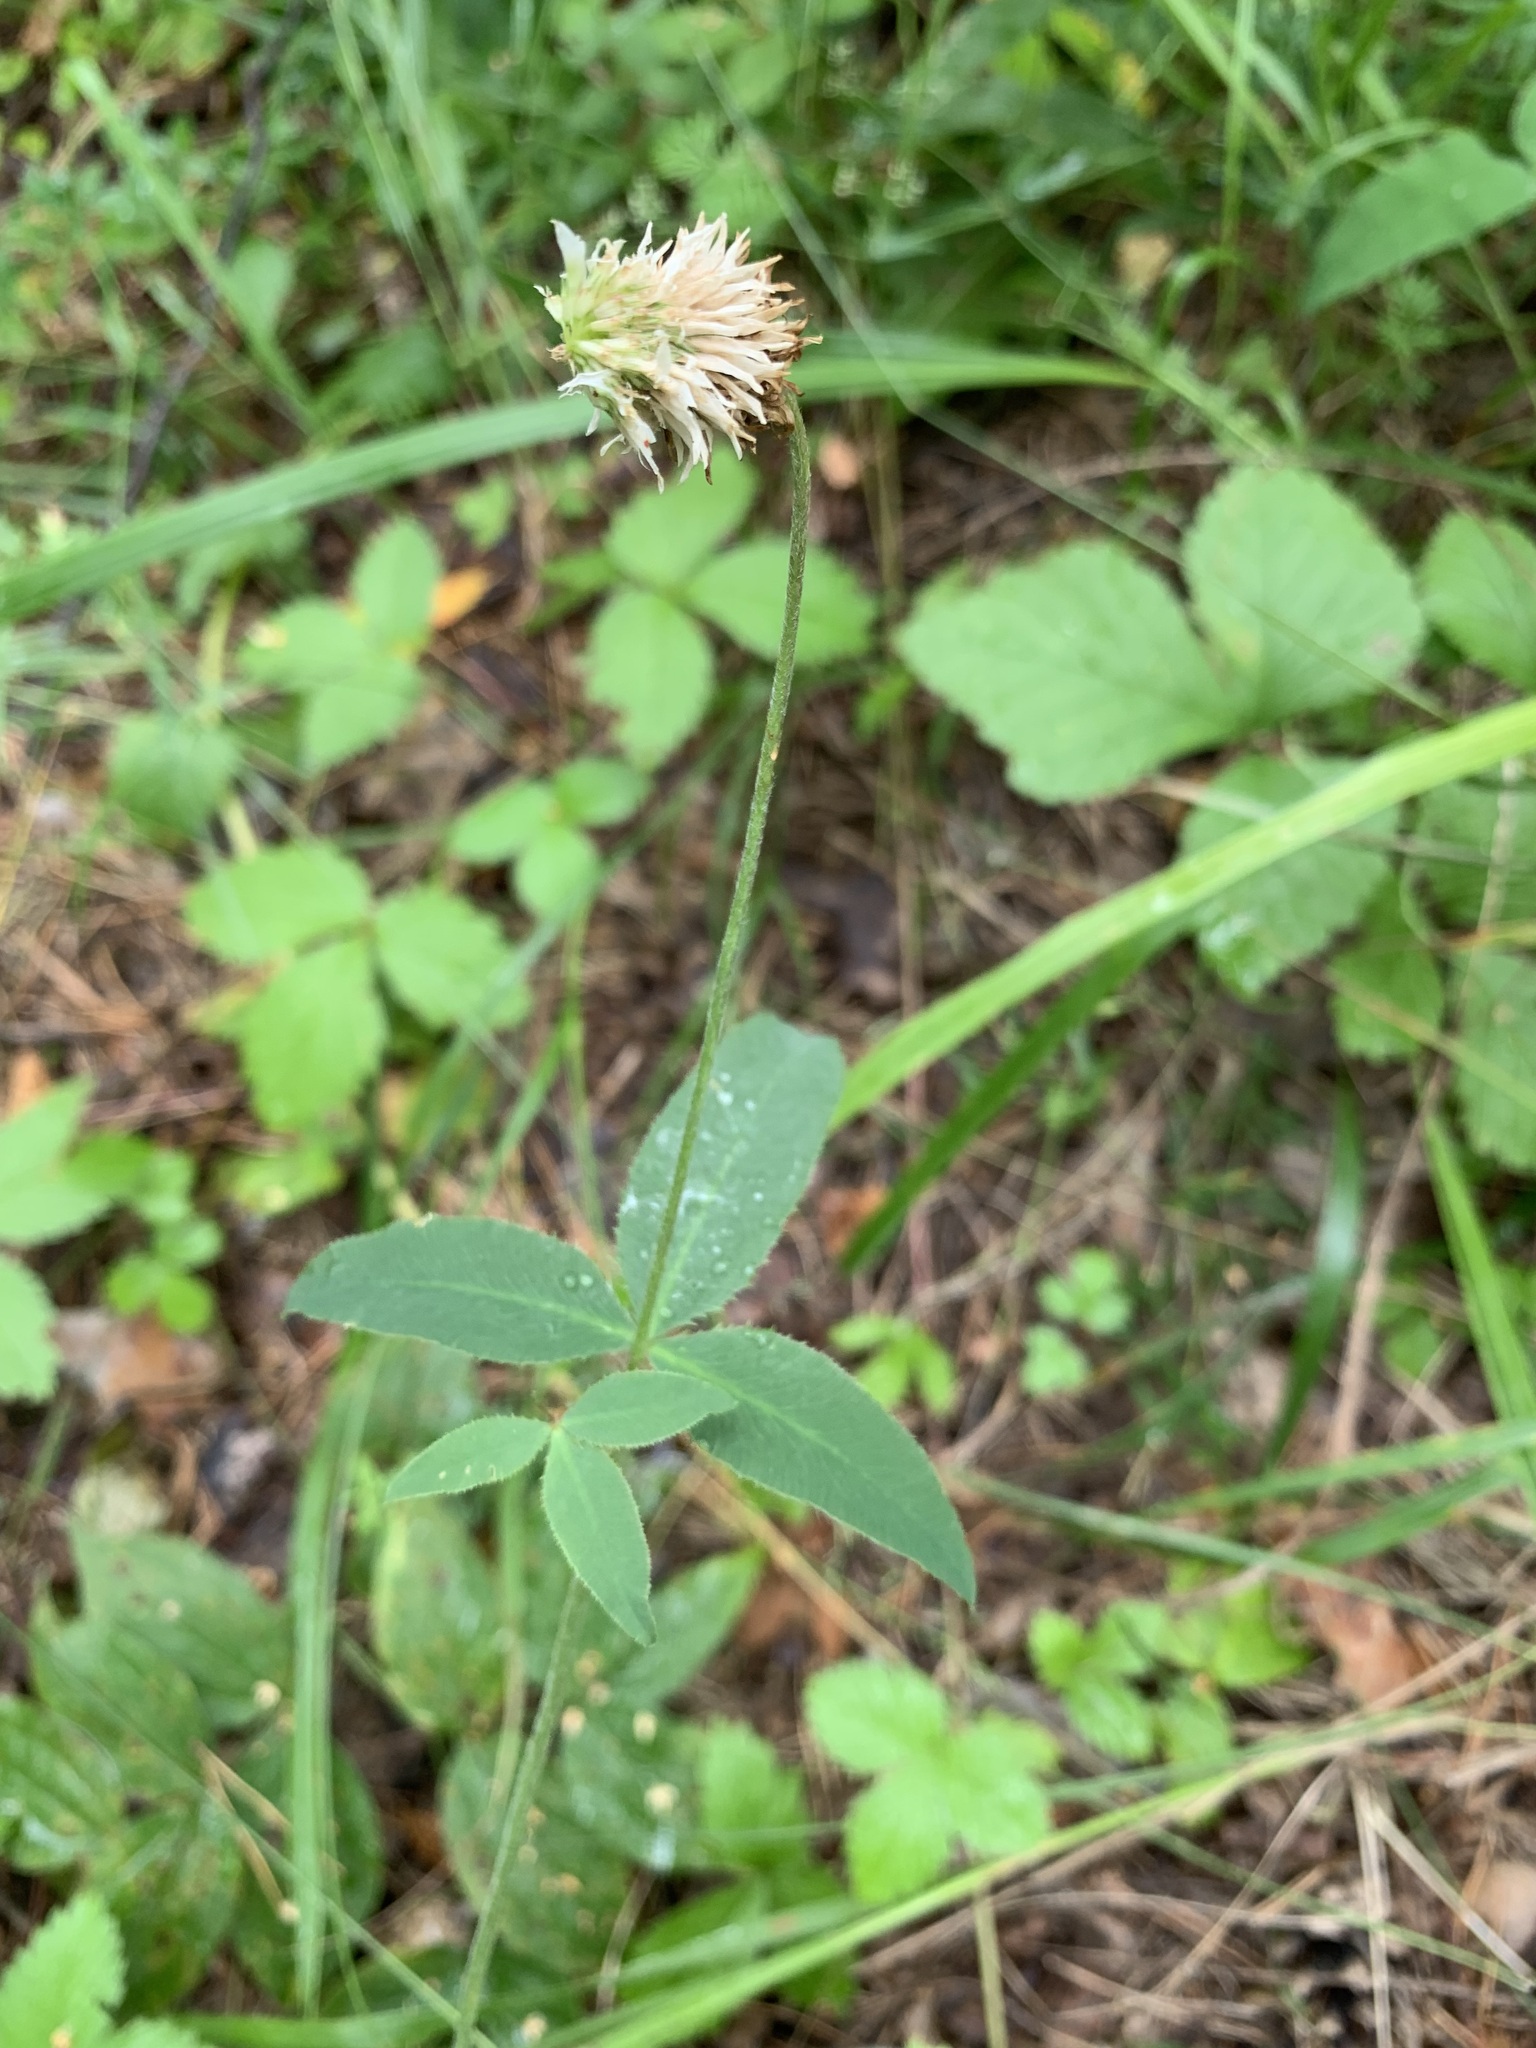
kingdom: Plantae
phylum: Tracheophyta
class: Magnoliopsida
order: Fabales
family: Fabaceae
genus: Trifolium
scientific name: Trifolium montanum
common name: Mountain clover
